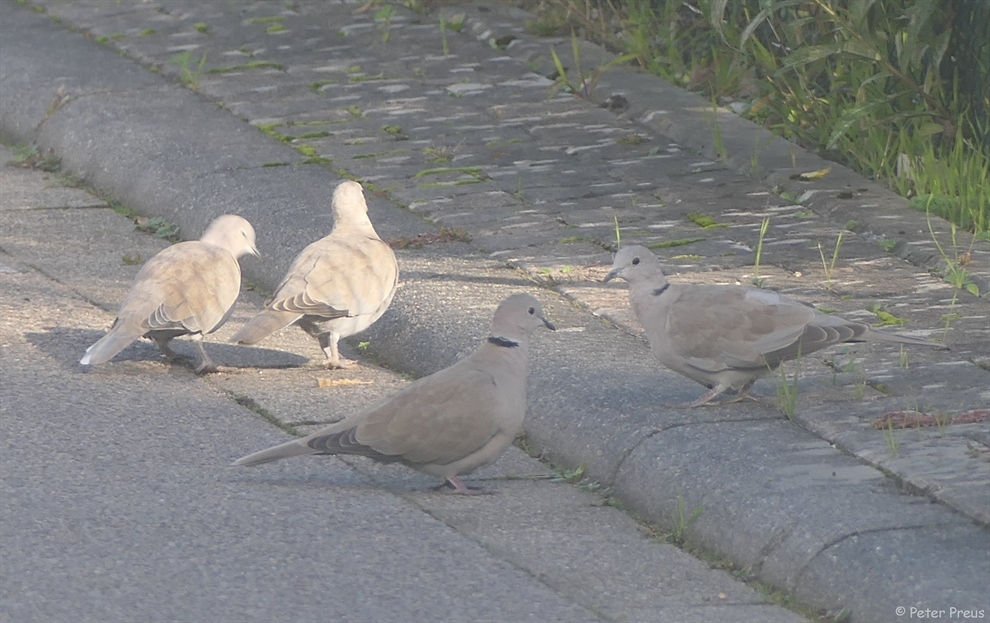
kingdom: Animalia
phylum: Chordata
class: Aves
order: Columbiformes
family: Columbidae
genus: Streptopelia
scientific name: Streptopelia decaocto
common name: Eurasian collared dove
